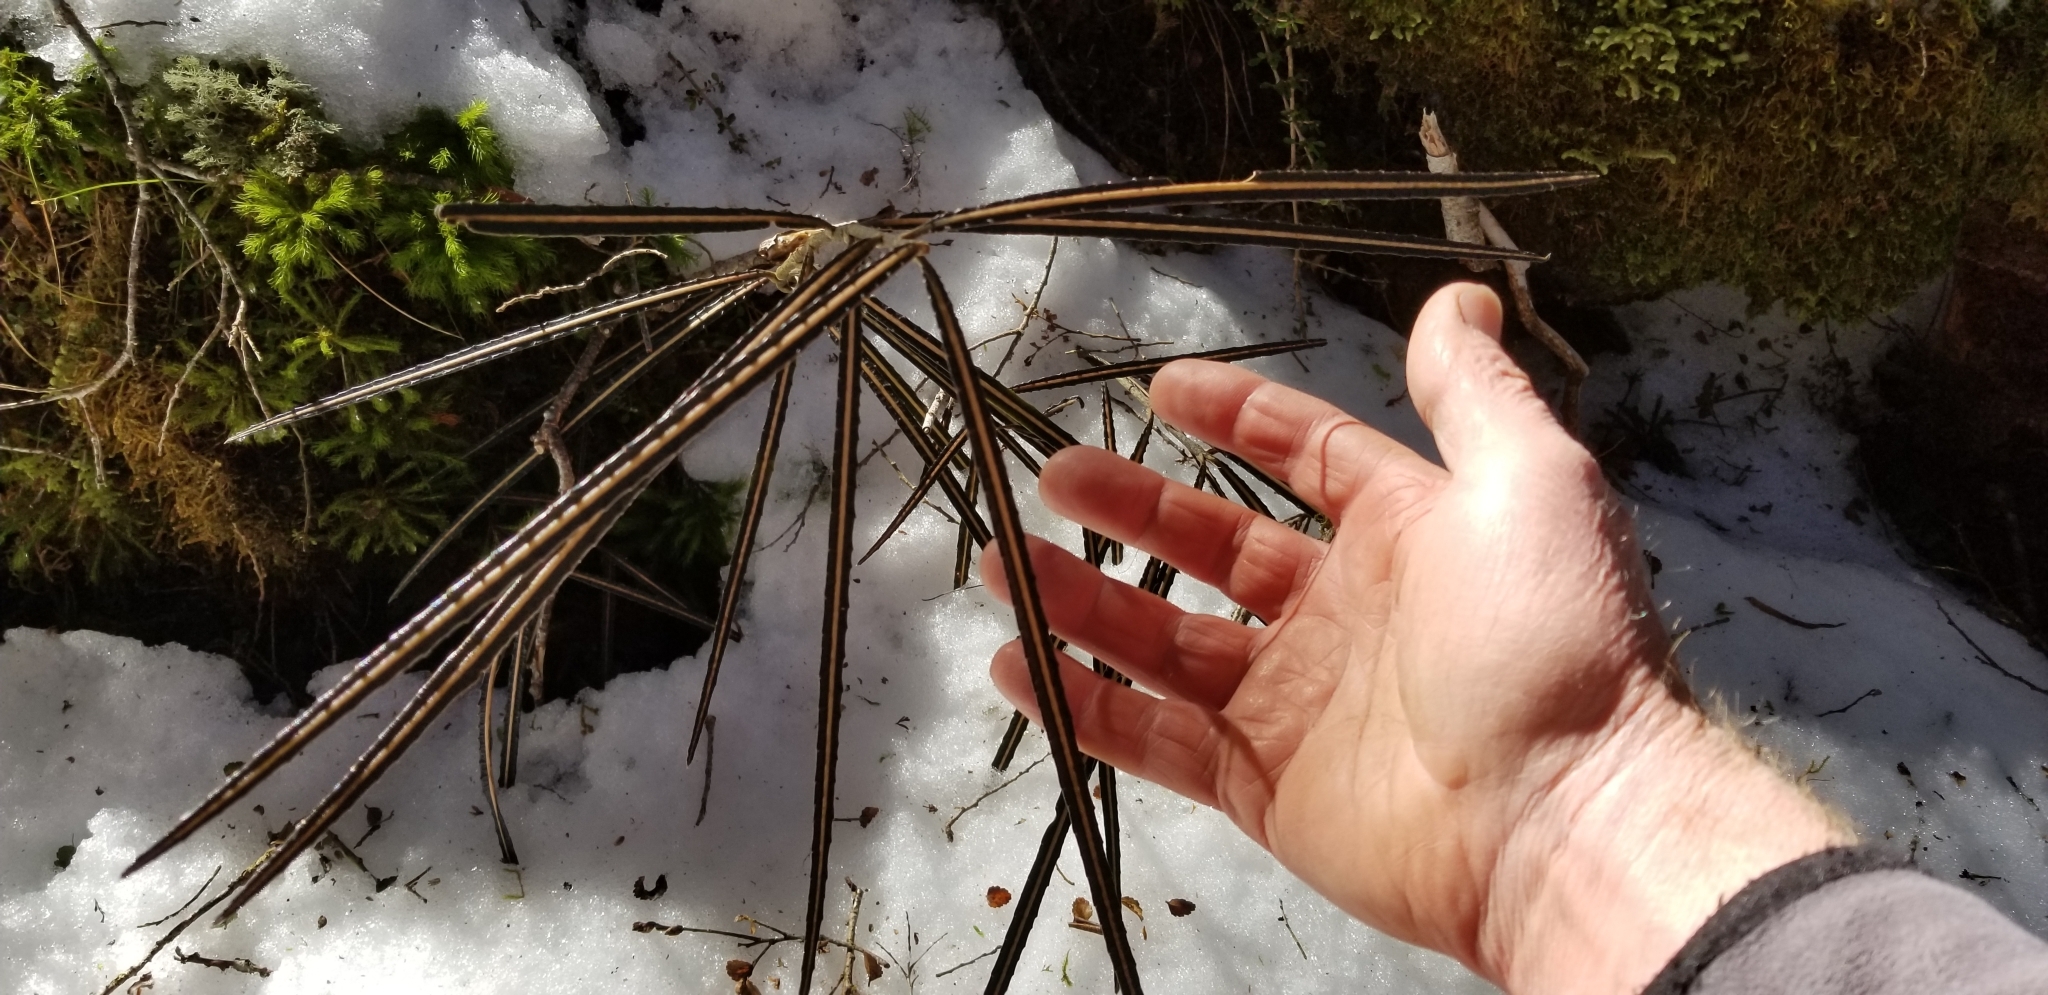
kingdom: Plantae
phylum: Tracheophyta
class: Magnoliopsida
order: Apiales
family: Araliaceae
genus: Pseudopanax
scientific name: Pseudopanax linearis
